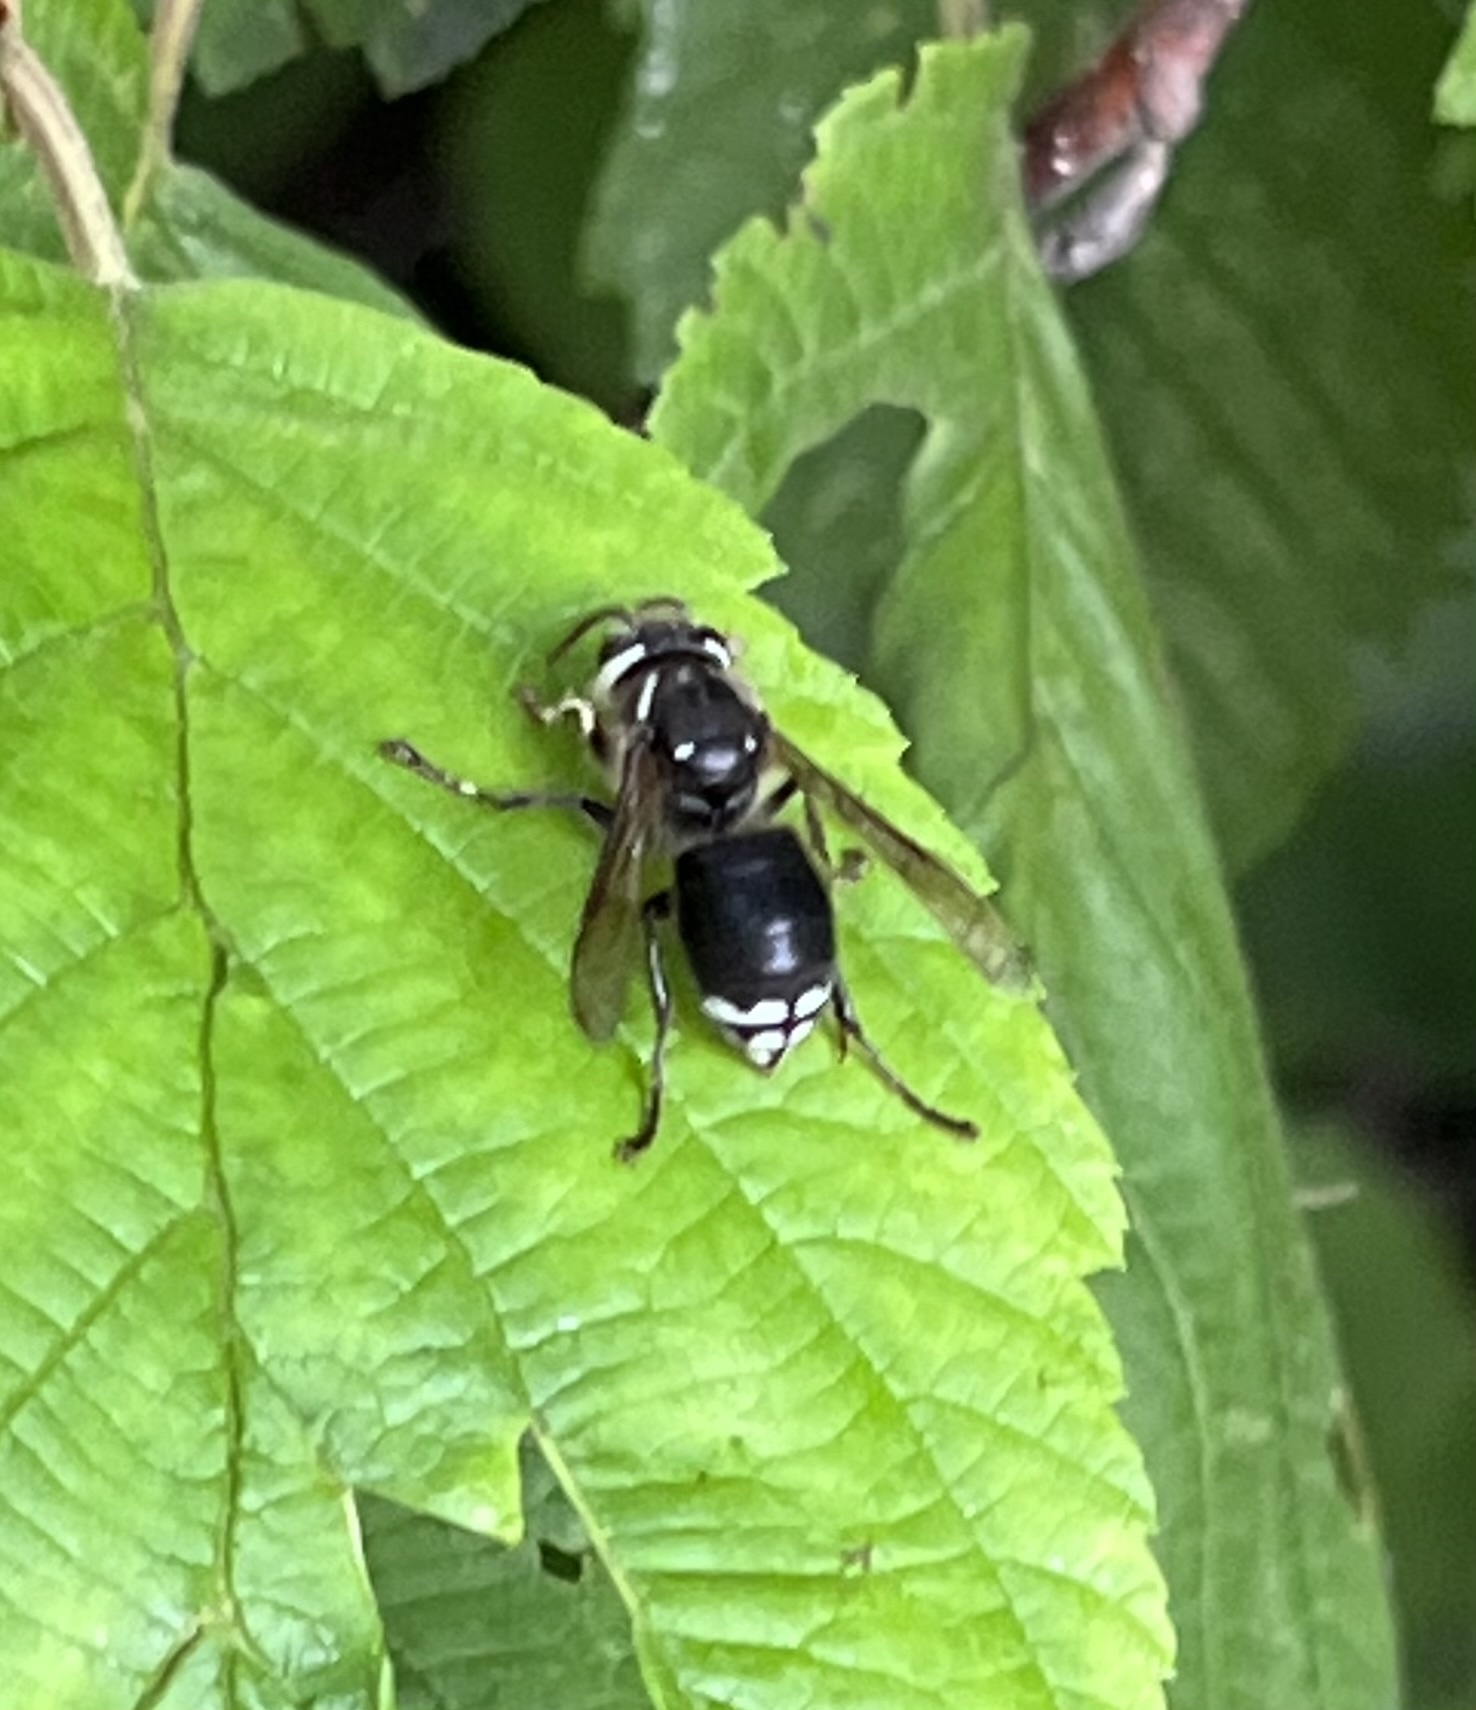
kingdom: Animalia
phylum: Arthropoda
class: Insecta
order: Hymenoptera
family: Vespidae
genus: Dolichovespula
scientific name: Dolichovespula maculata
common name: Bald-faced hornet
